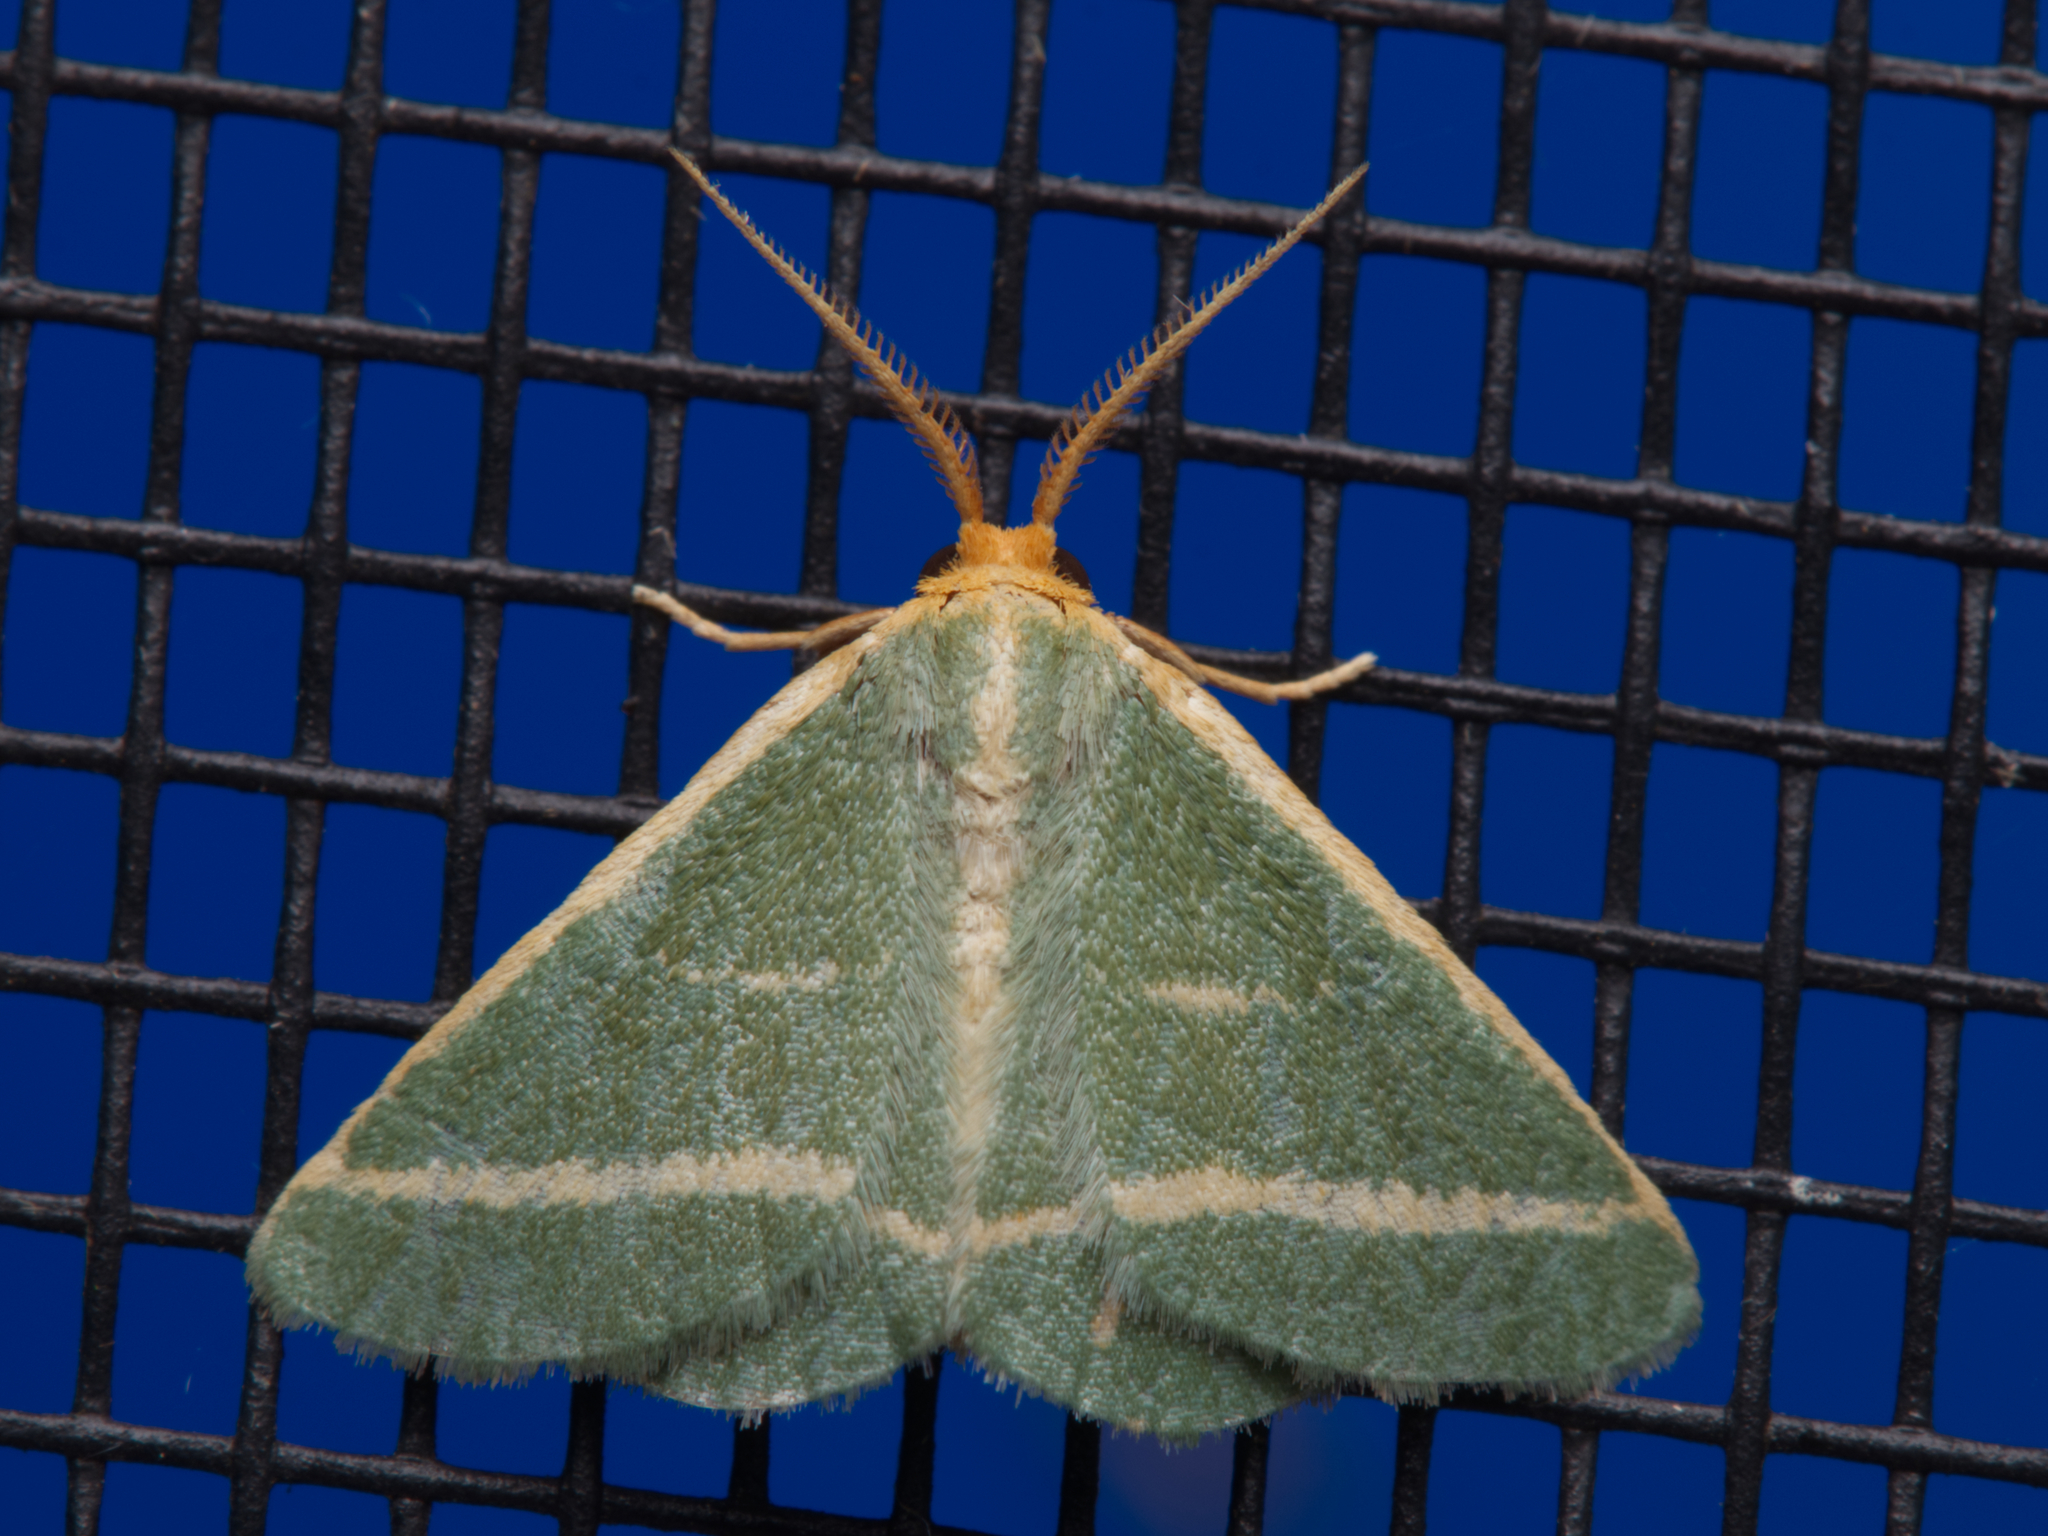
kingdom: Animalia
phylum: Arthropoda
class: Insecta
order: Lepidoptera
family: Geometridae
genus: Mixocera
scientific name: Mixocera latilineata
